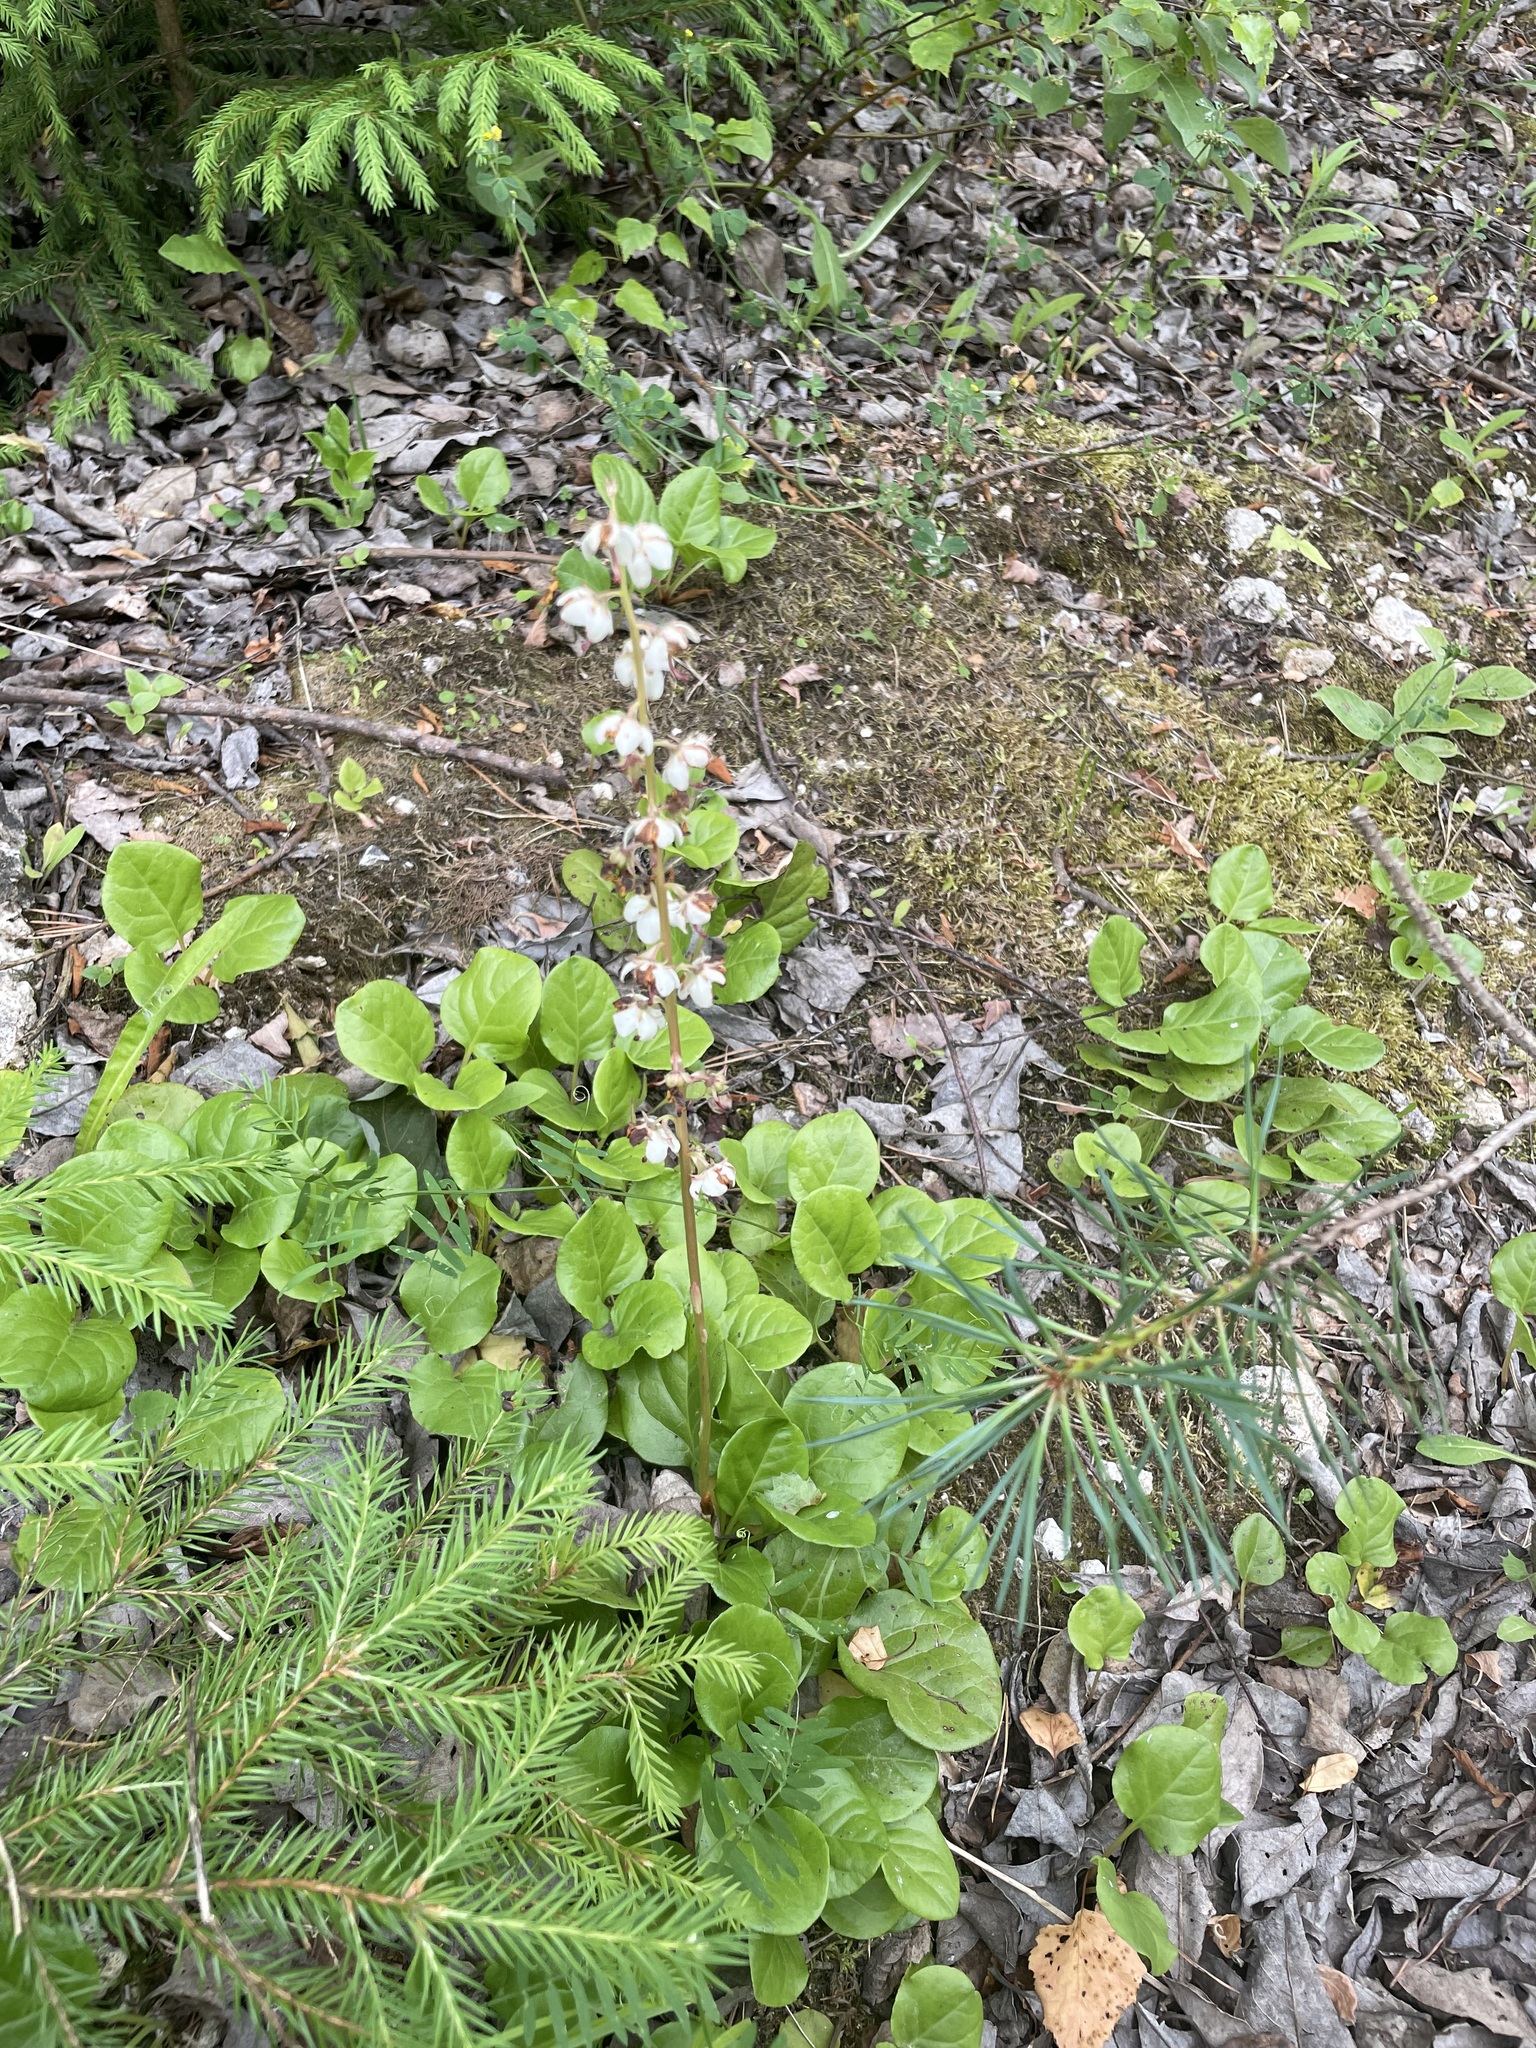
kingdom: Plantae
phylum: Tracheophyta
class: Magnoliopsida
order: Ericales
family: Ericaceae
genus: Pyrola
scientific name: Pyrola rotundifolia
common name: Round-leaved wintergreen
